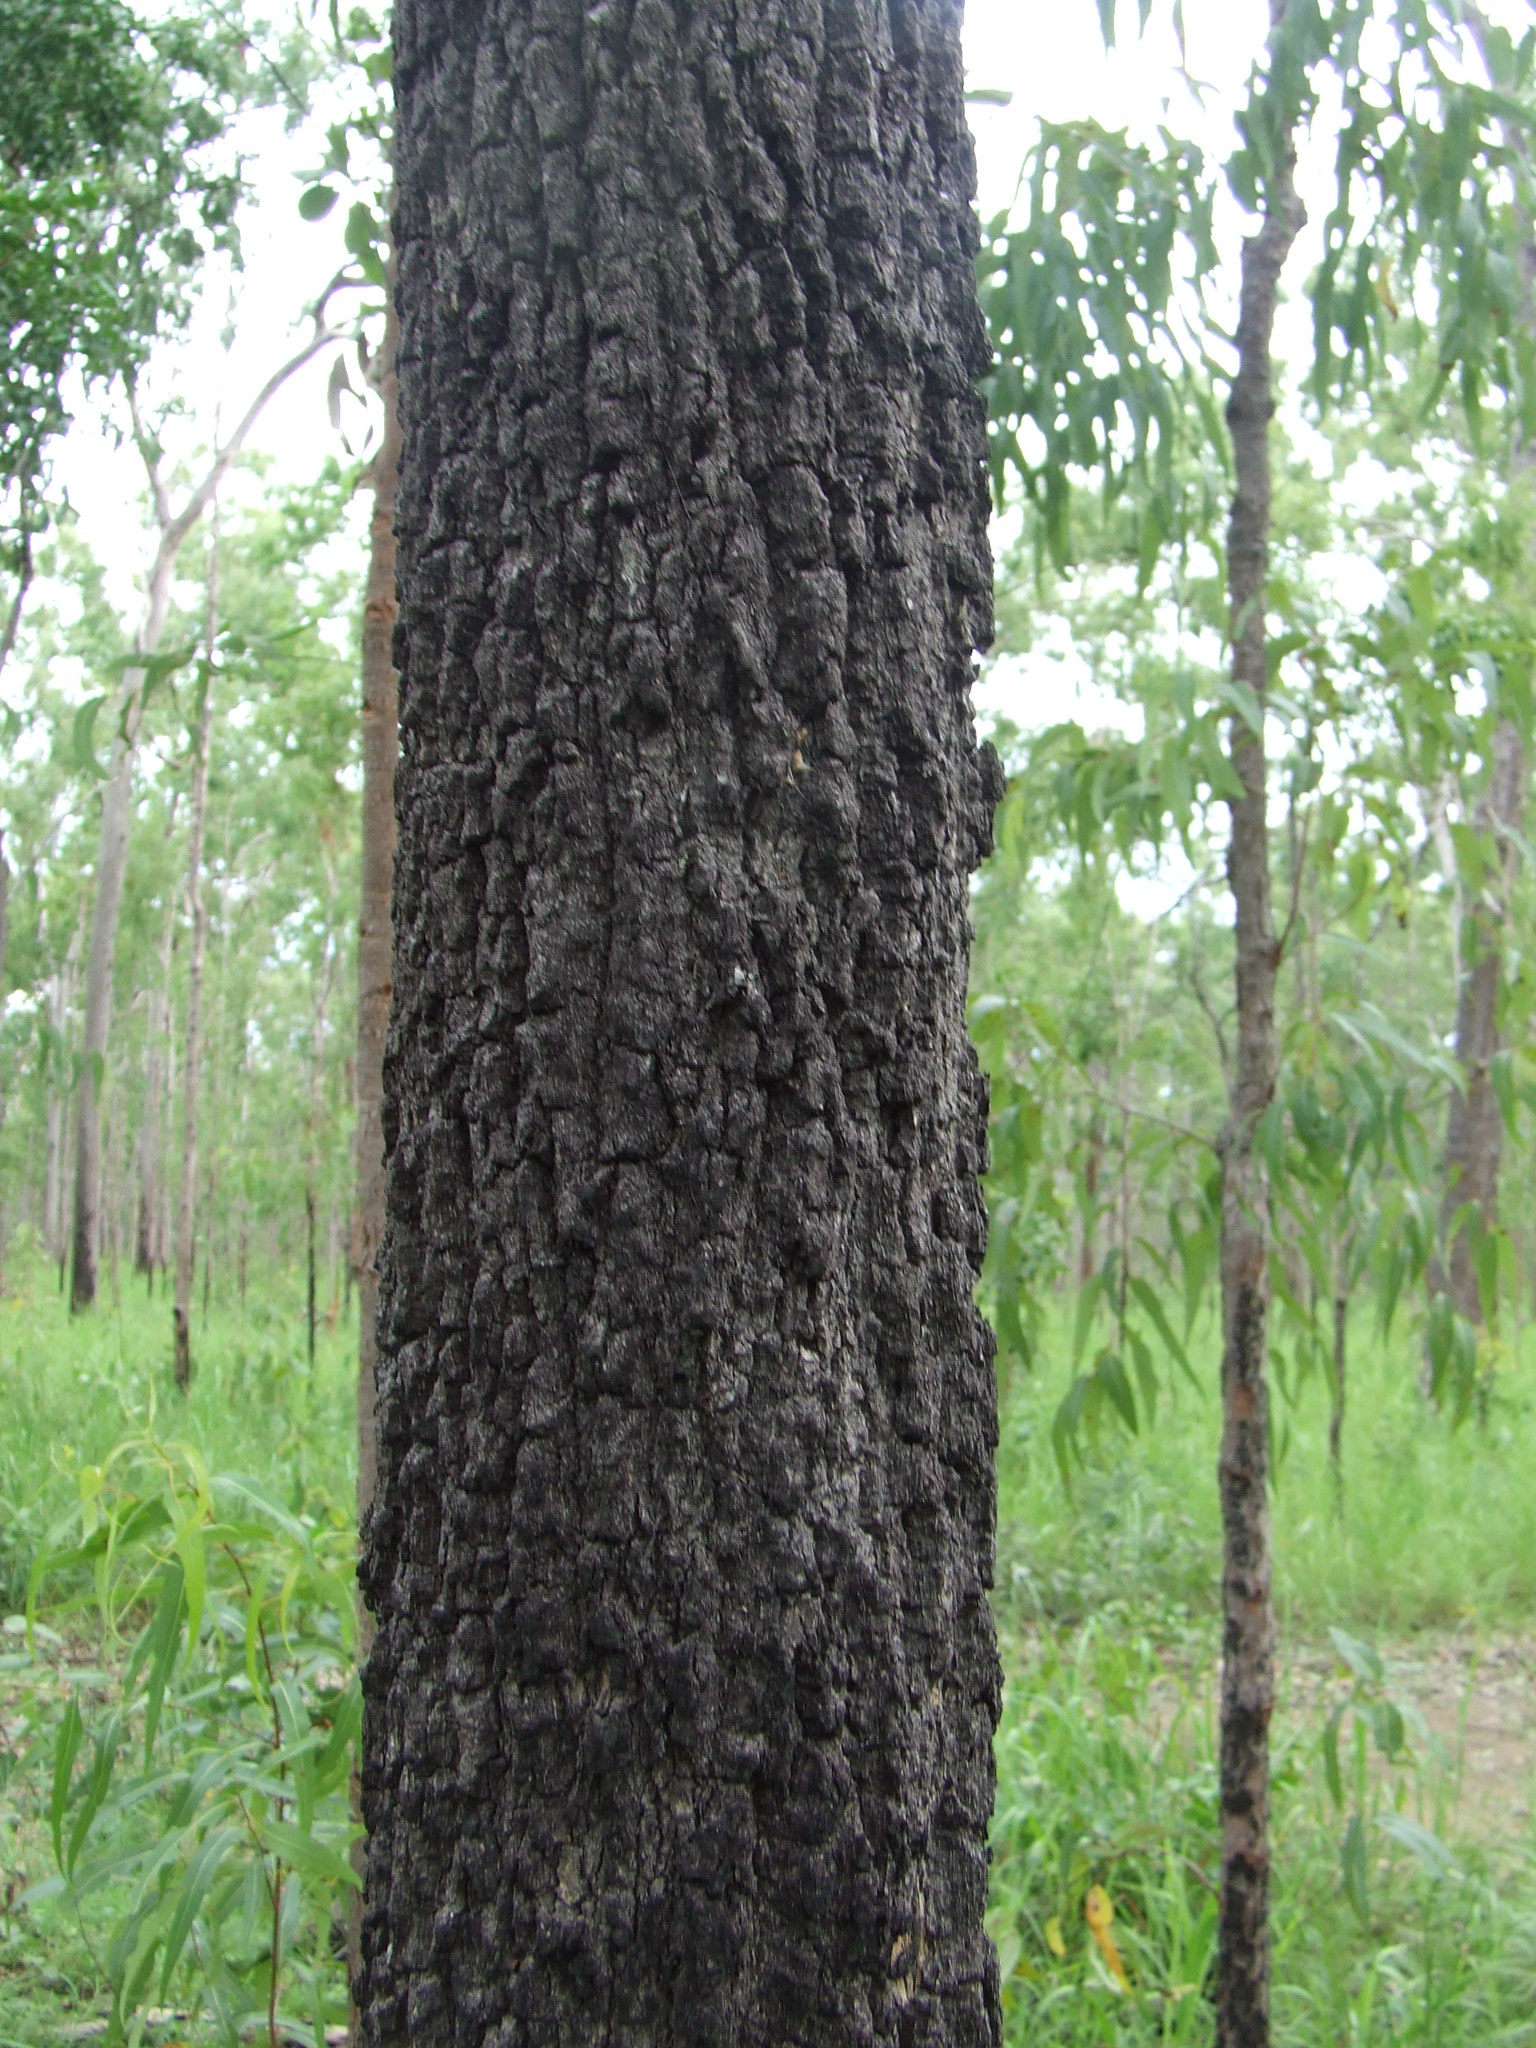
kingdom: Plantae
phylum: Tracheophyta
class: Magnoliopsida
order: Celastrales
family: Celastraceae
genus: Siphonodon
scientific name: Siphonodon pendulum
